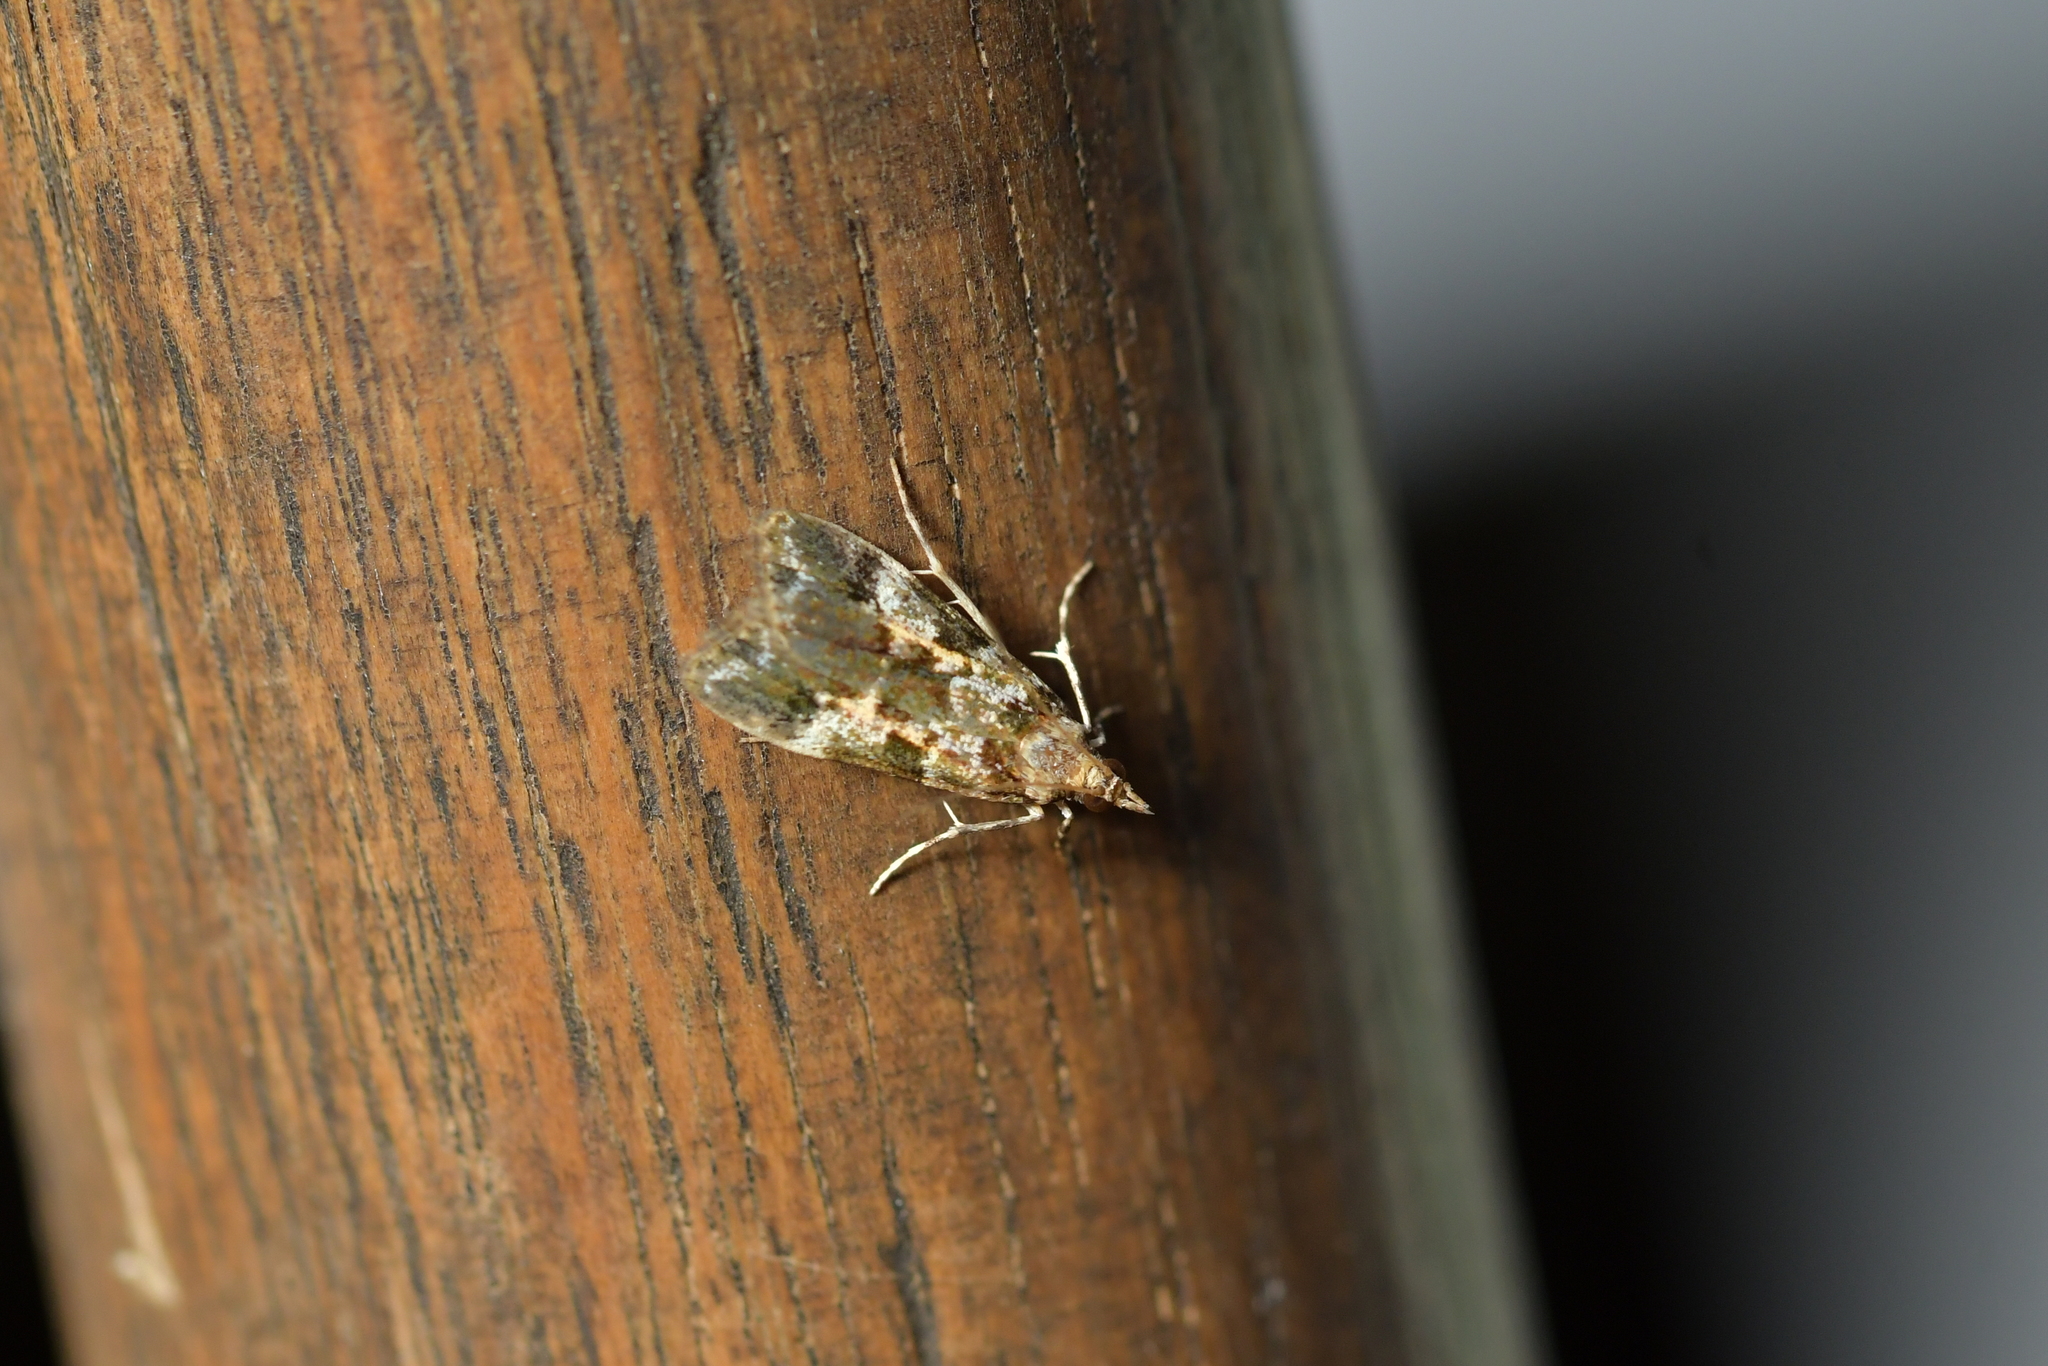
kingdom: Animalia
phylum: Arthropoda
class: Insecta
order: Lepidoptera
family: Crambidae
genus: Eudonia
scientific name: Eudonia characta
